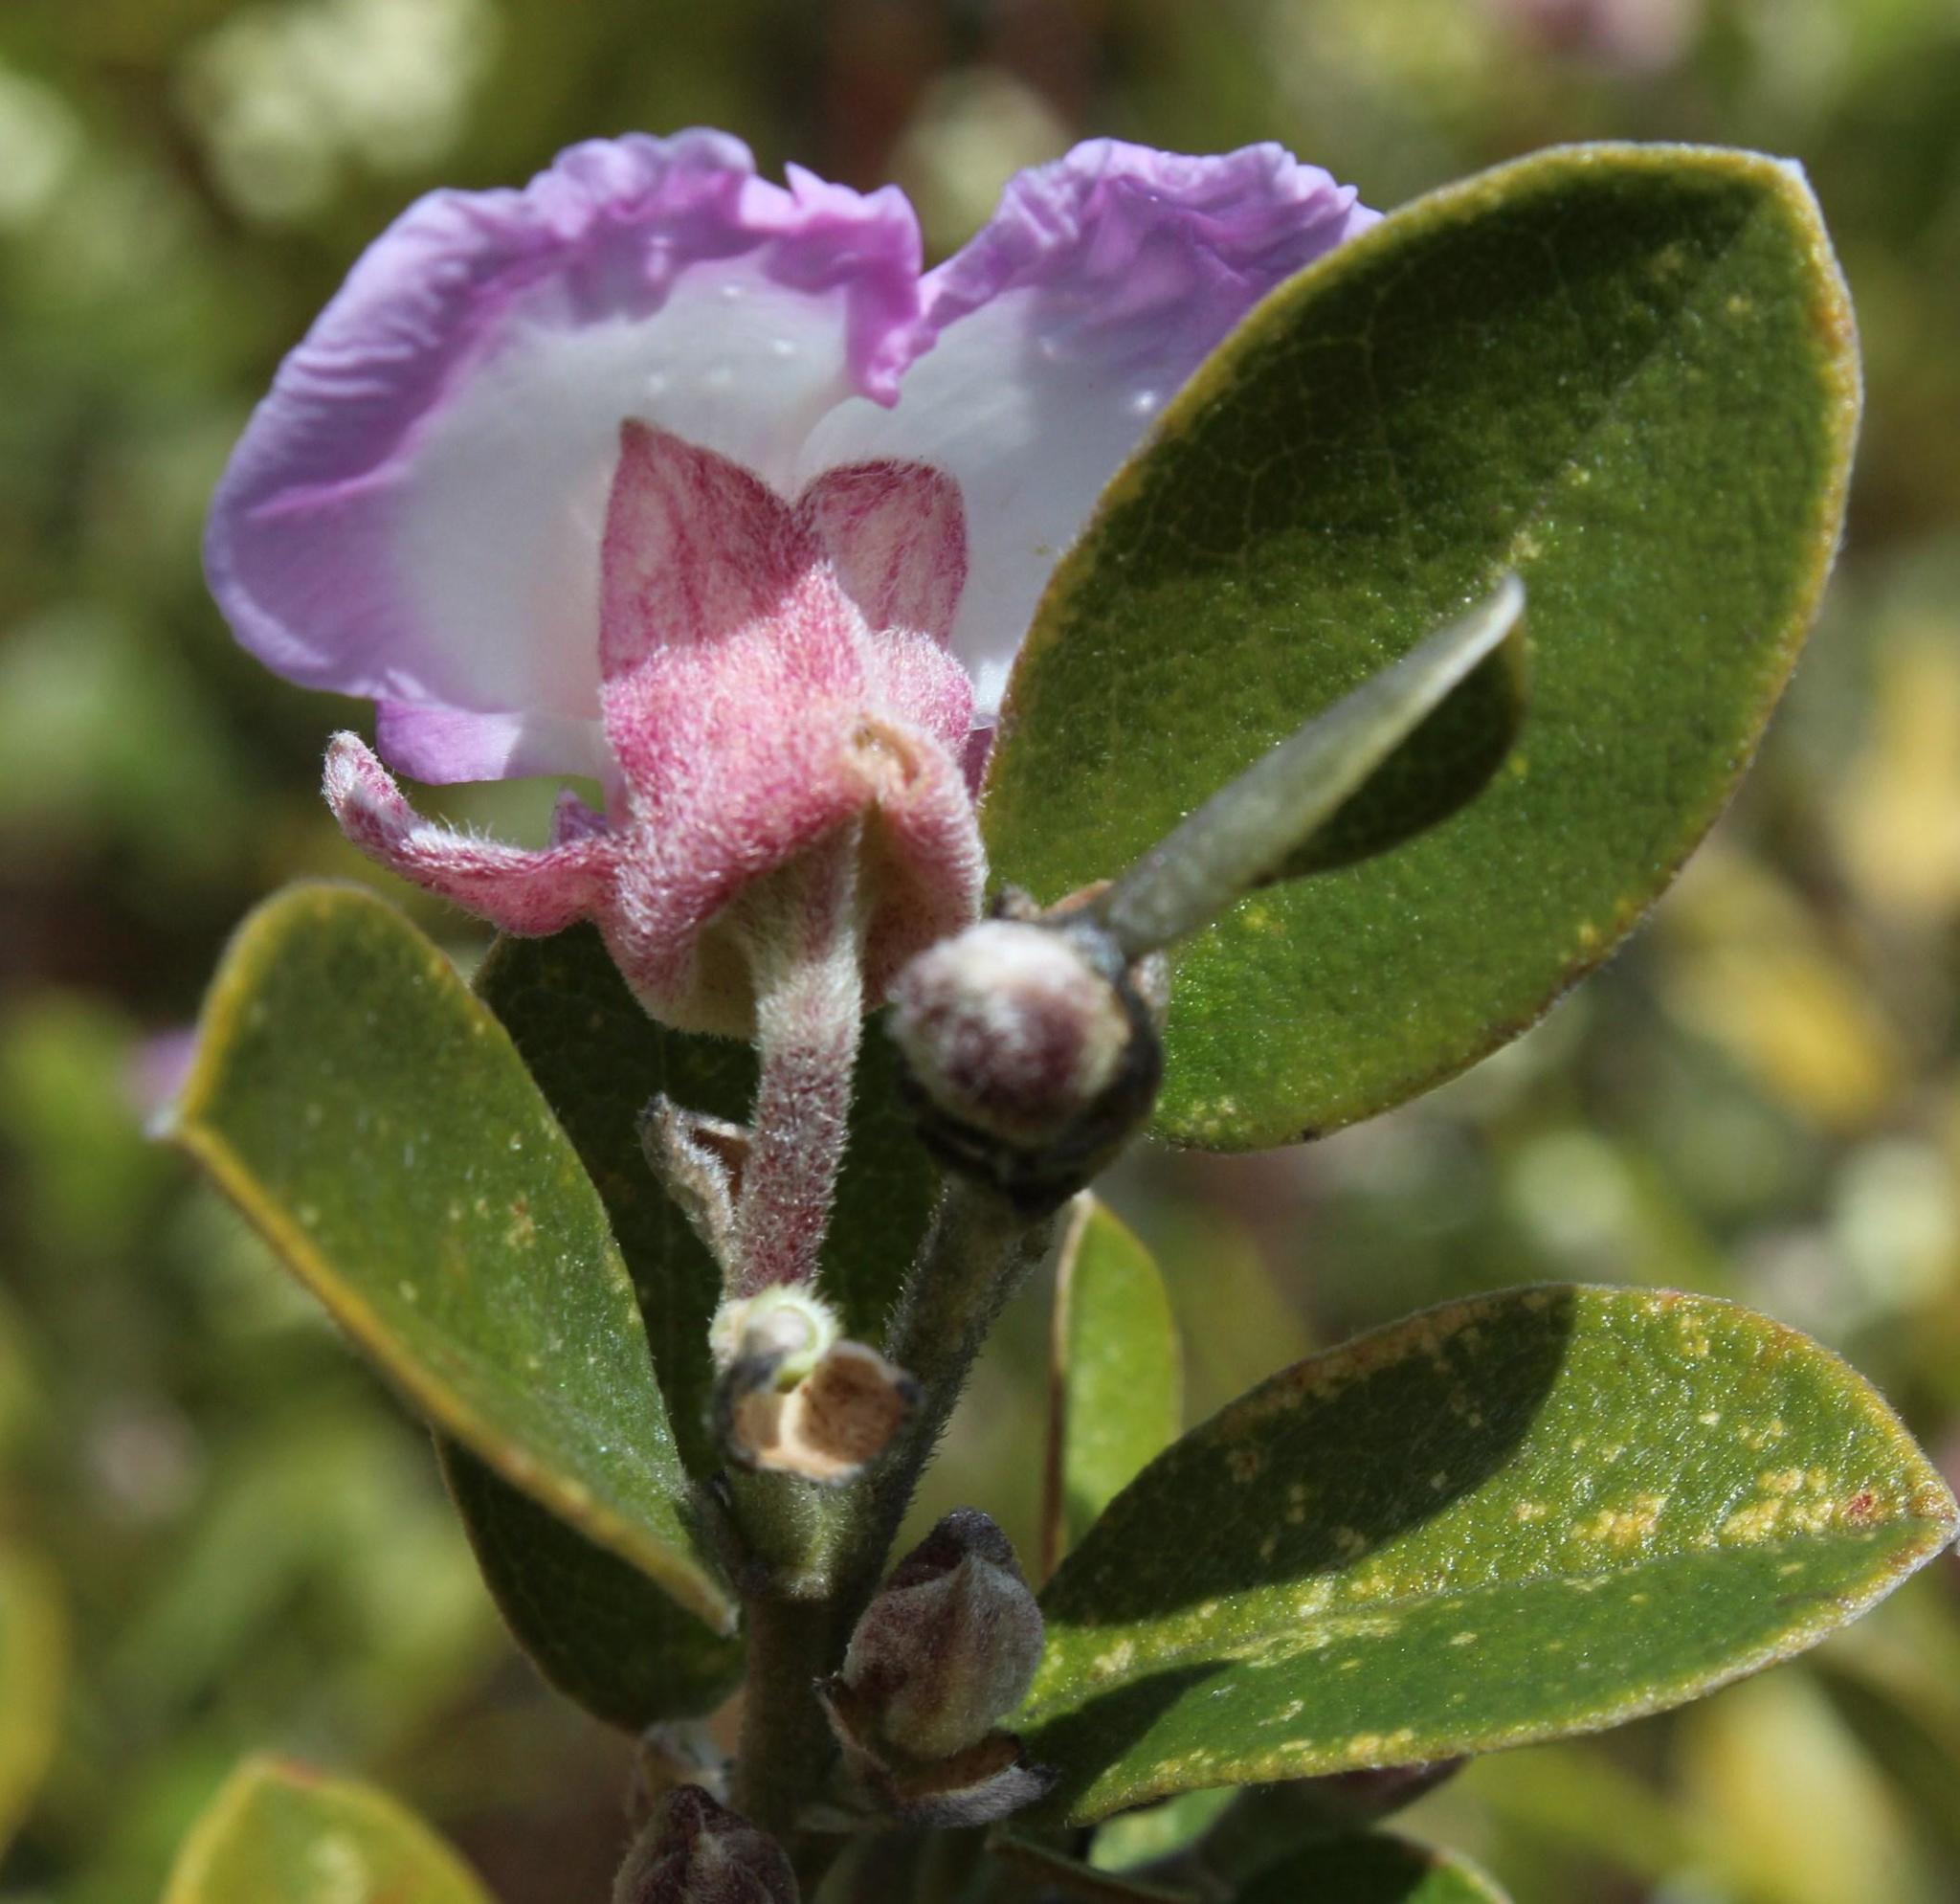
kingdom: Plantae
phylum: Tracheophyta
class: Magnoliopsida
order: Fabales
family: Fabaceae
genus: Podalyria
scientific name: Podalyria calyptrata
